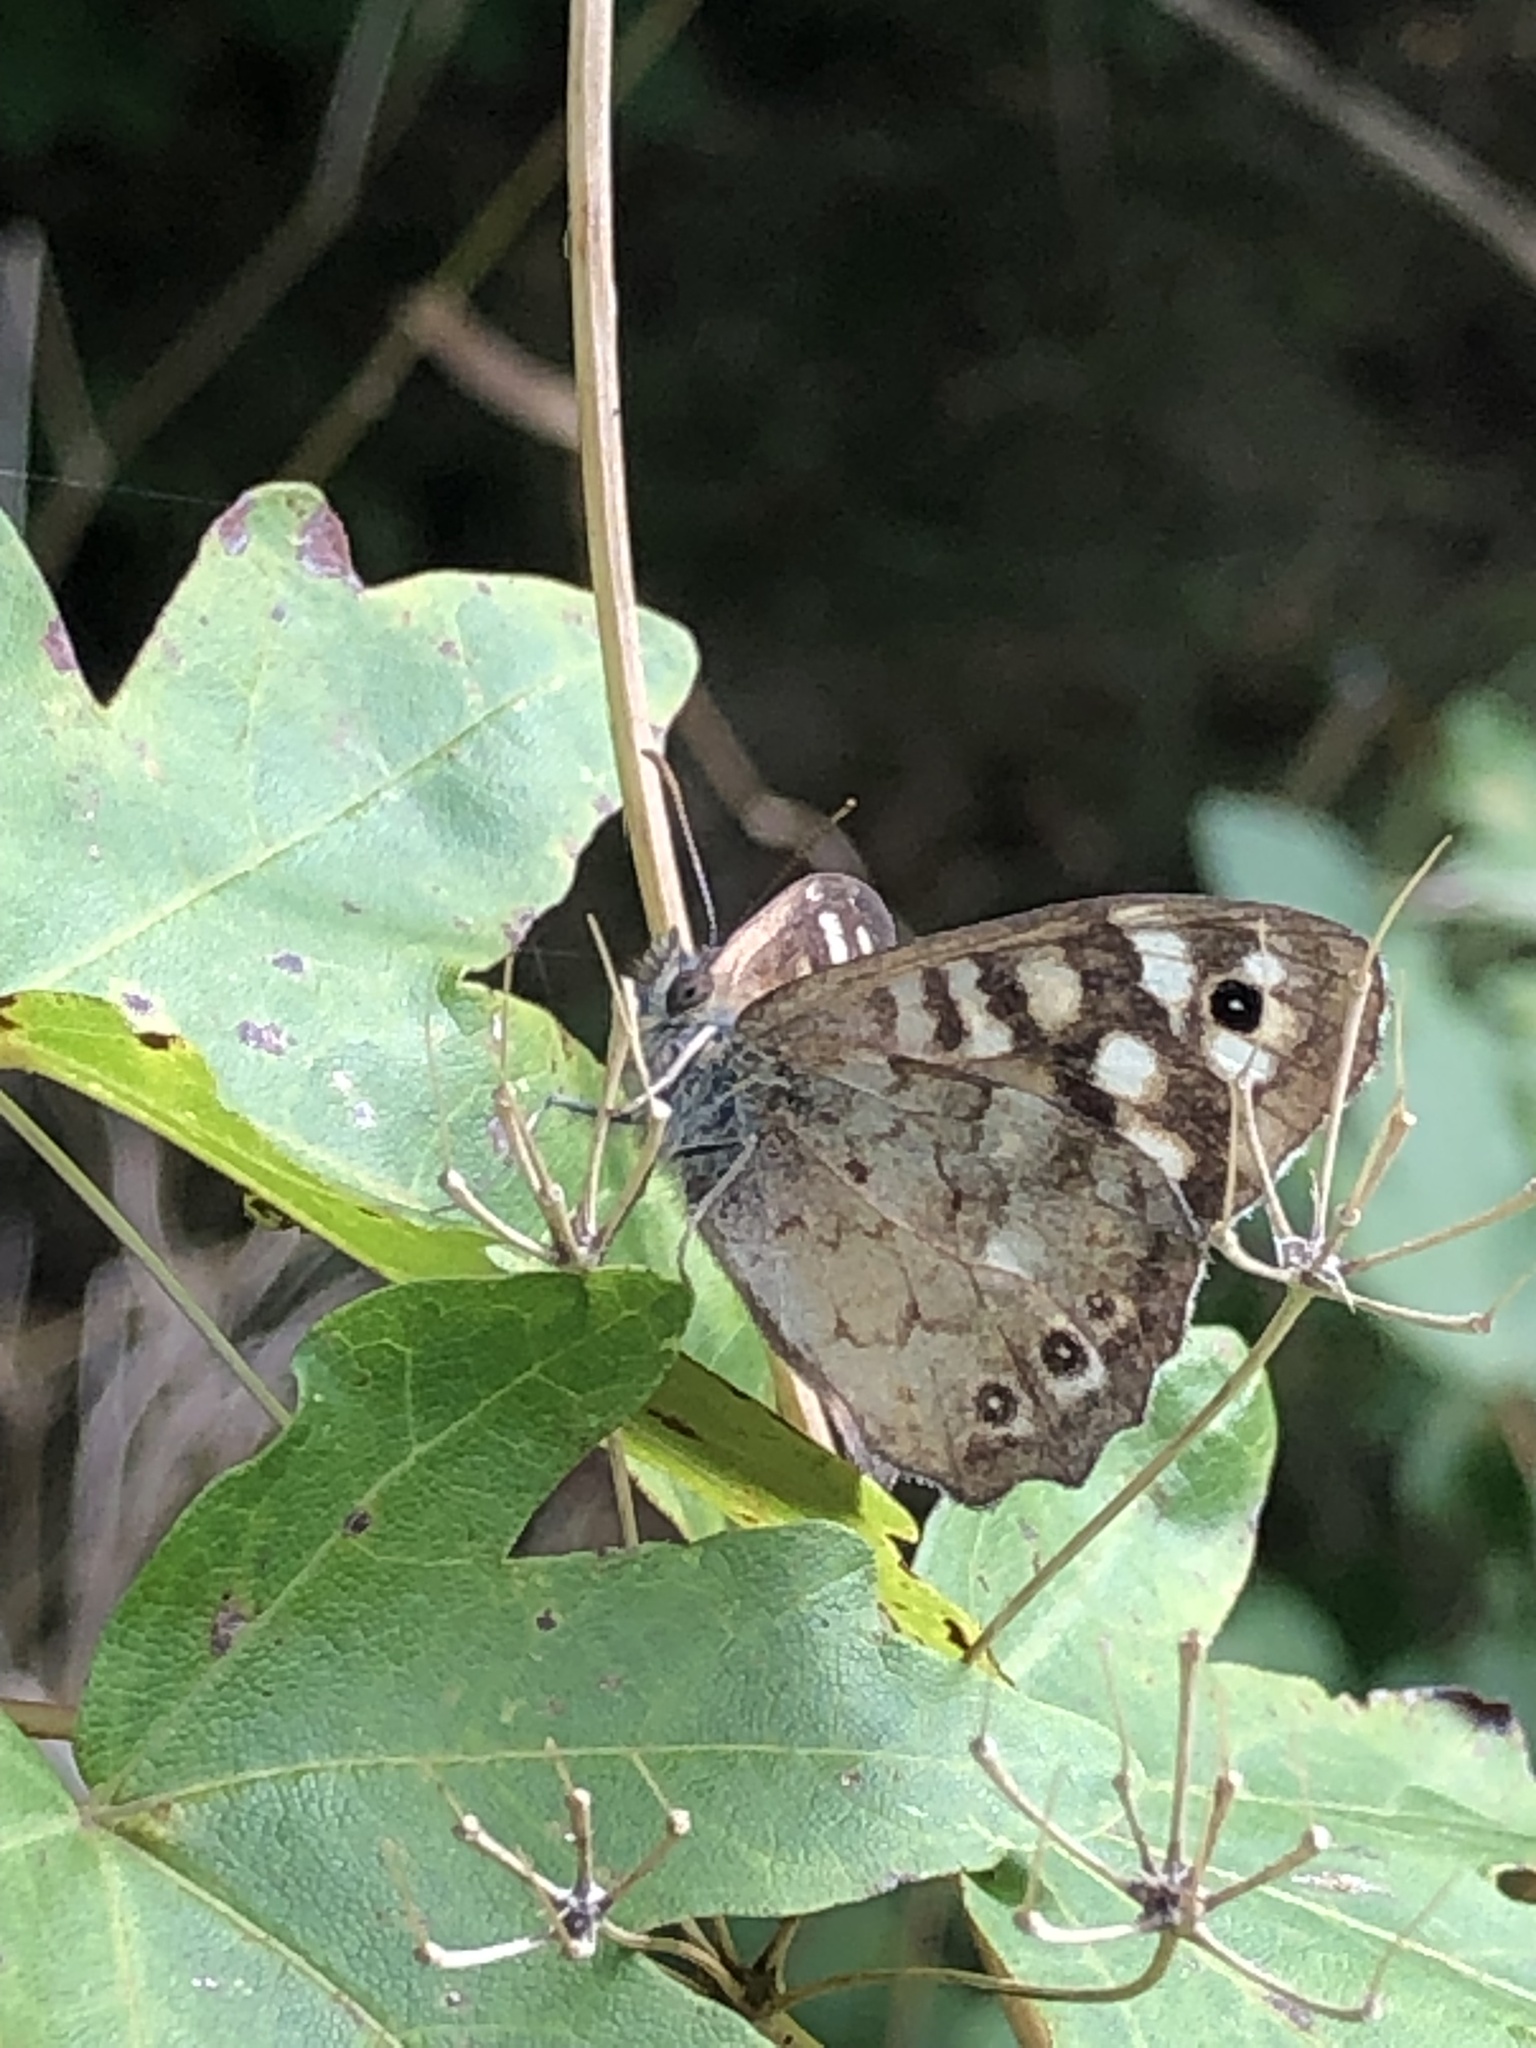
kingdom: Animalia
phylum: Arthropoda
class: Insecta
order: Lepidoptera
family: Nymphalidae
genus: Pararge
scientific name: Pararge aegeria
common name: Speckled wood
